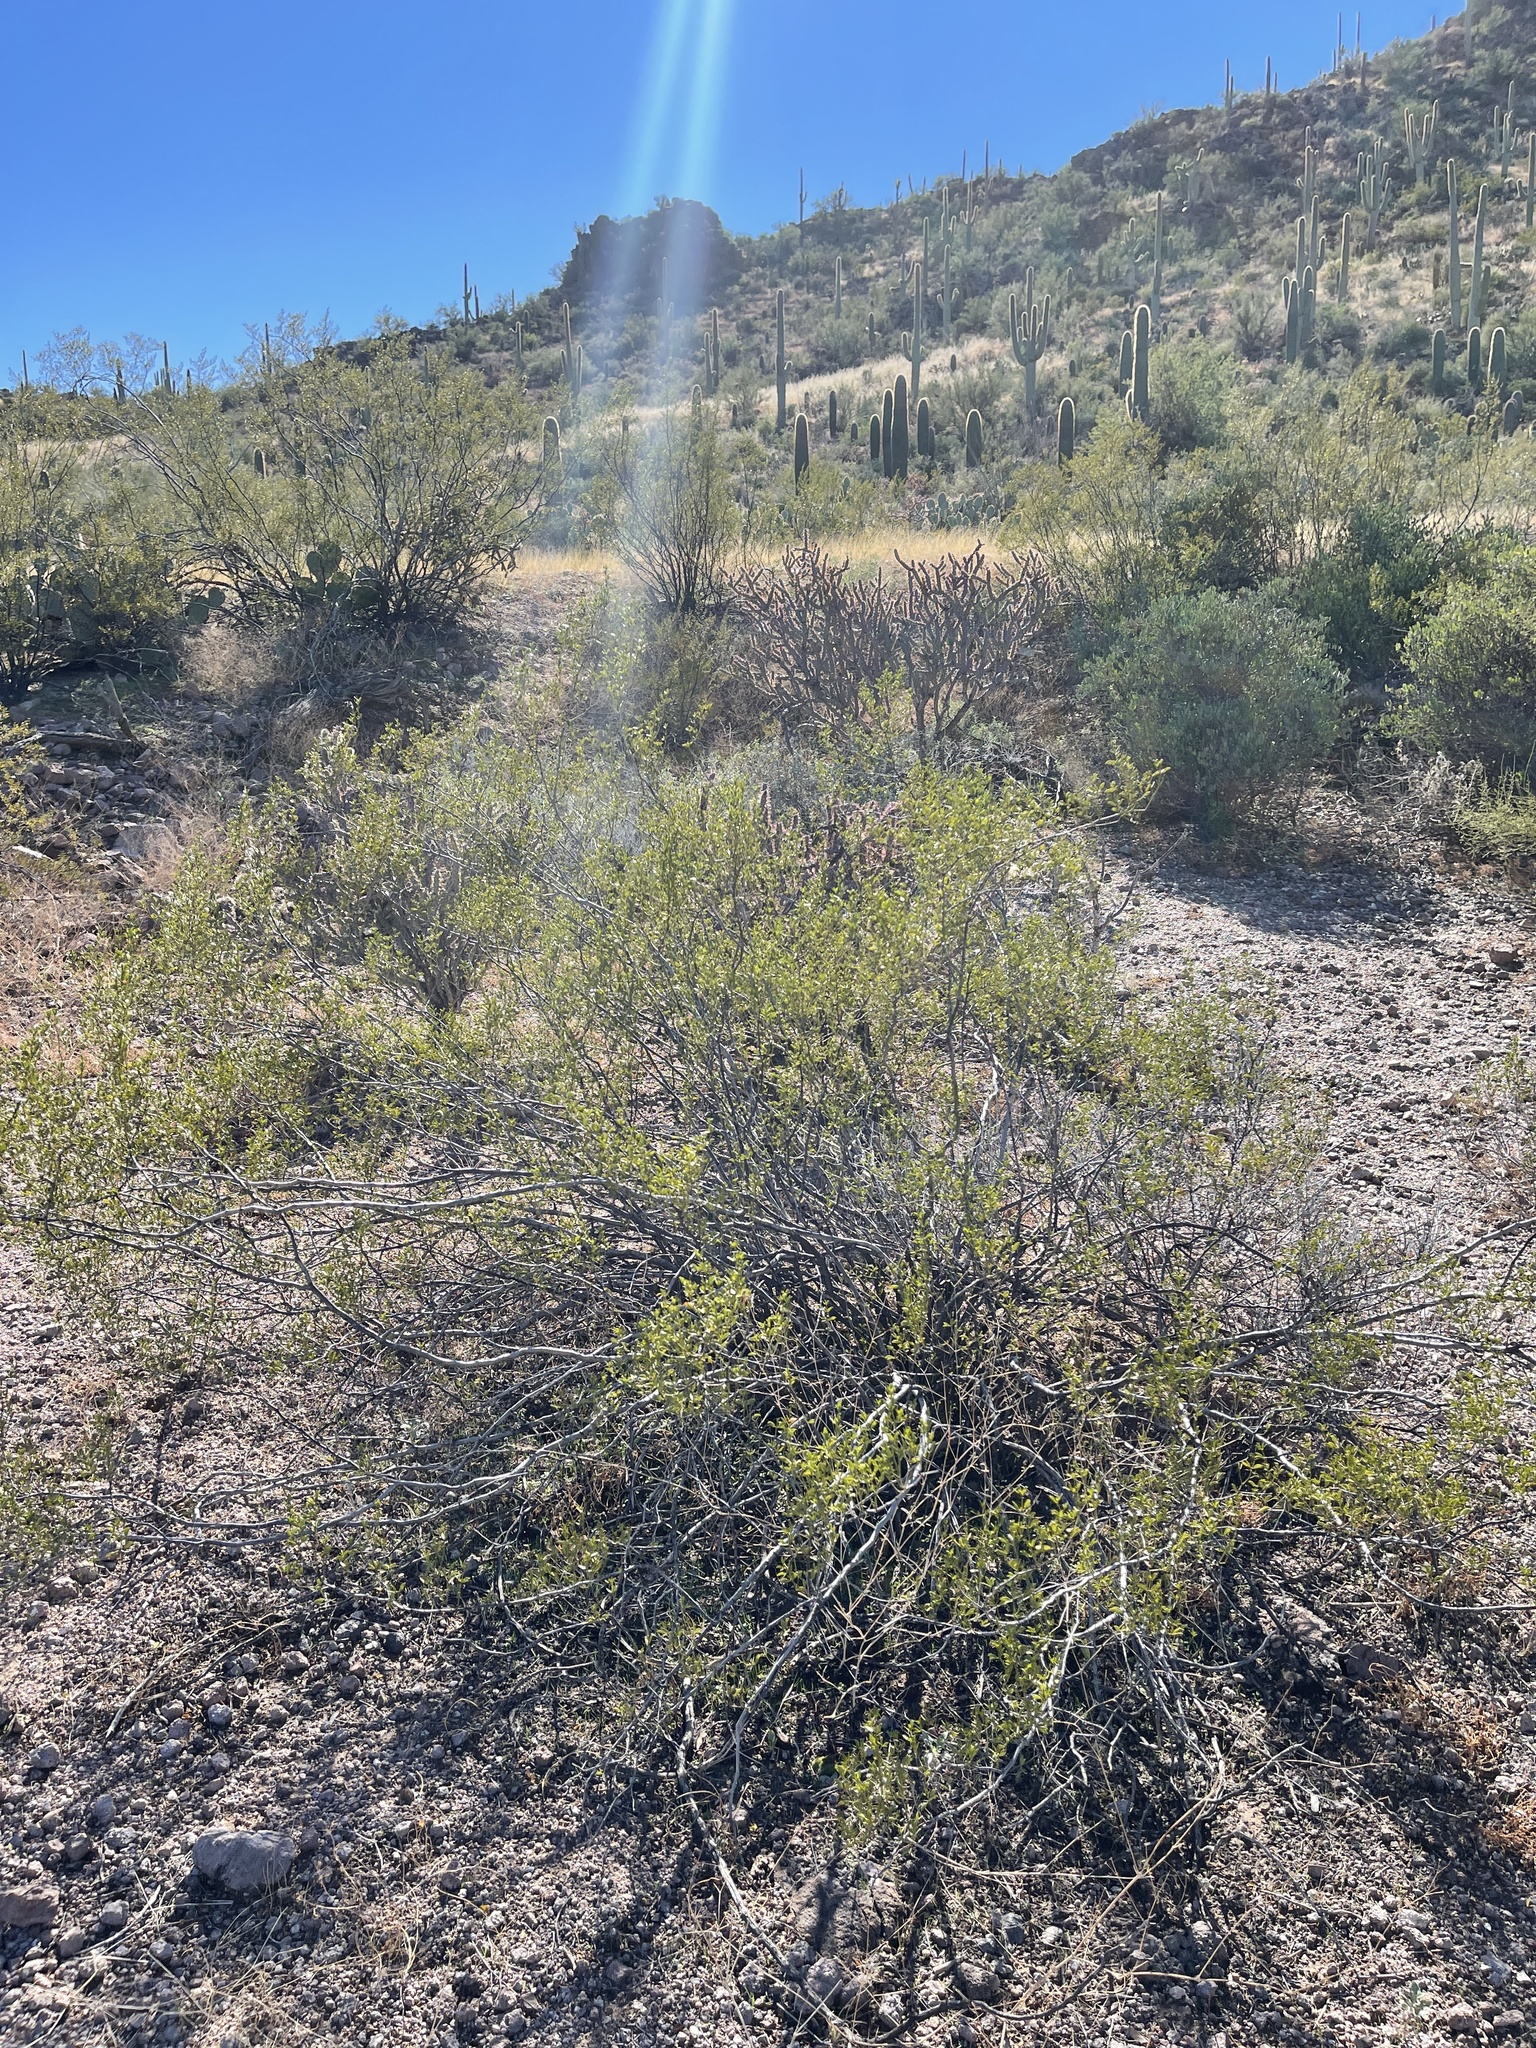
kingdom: Plantae
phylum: Tracheophyta
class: Magnoliopsida
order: Zygophyllales
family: Zygophyllaceae
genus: Larrea
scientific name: Larrea tridentata
